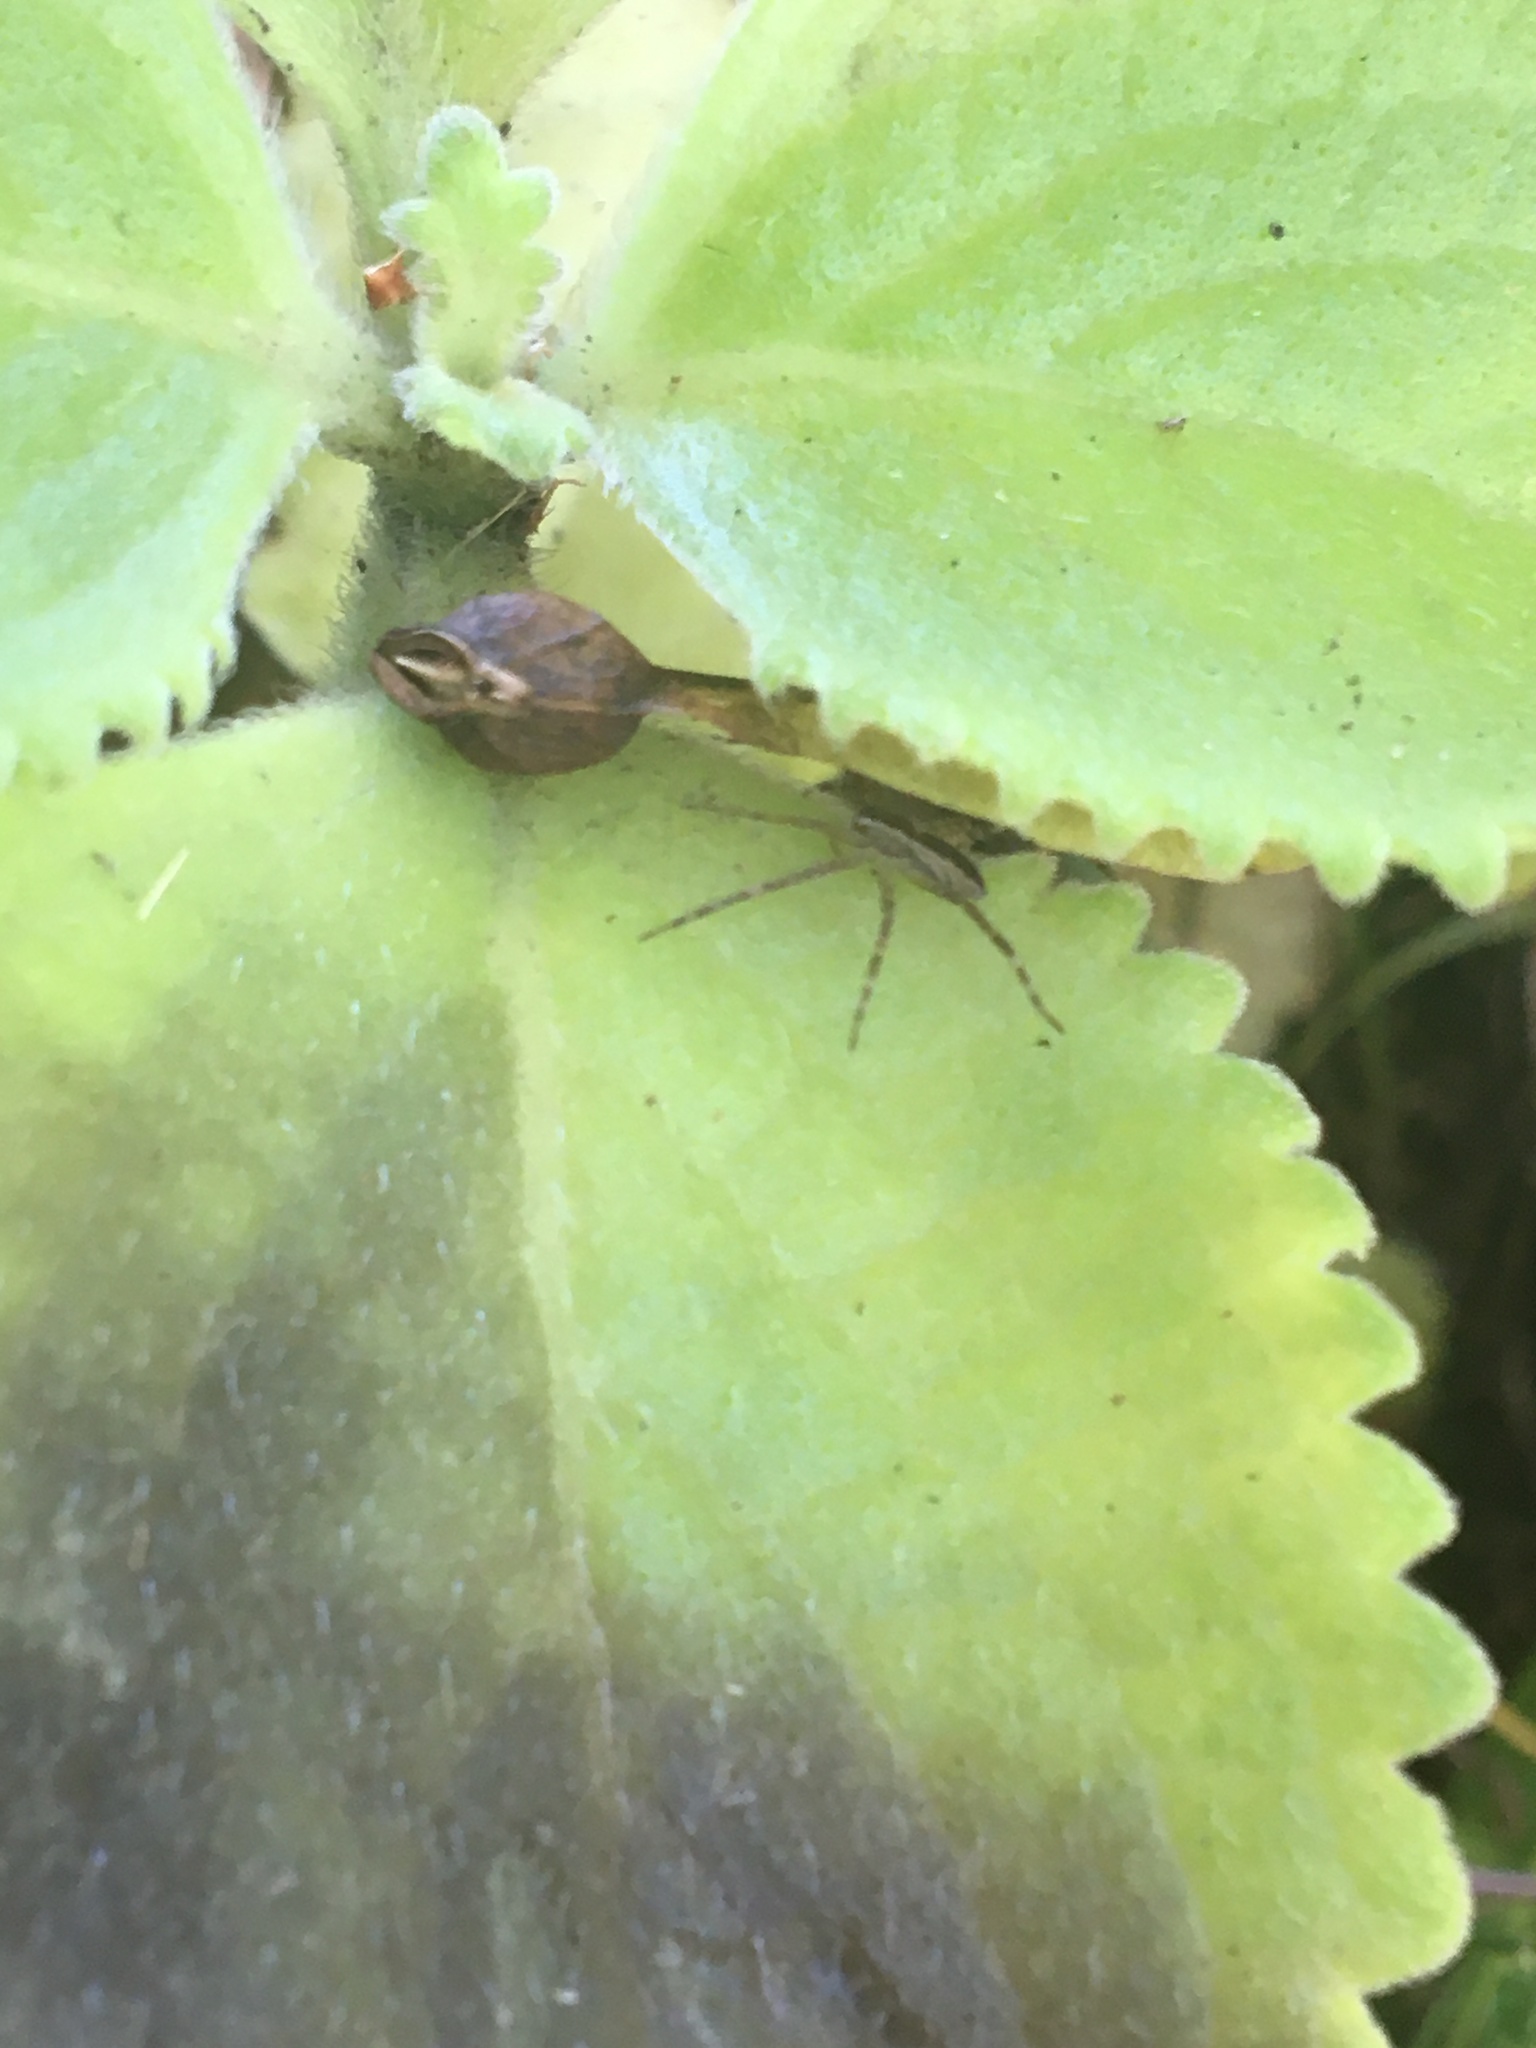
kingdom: Animalia
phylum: Arthropoda
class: Arachnida
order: Araneae
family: Pisauridae
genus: Pisaurina
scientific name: Pisaurina mira
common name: American nursery web spider
